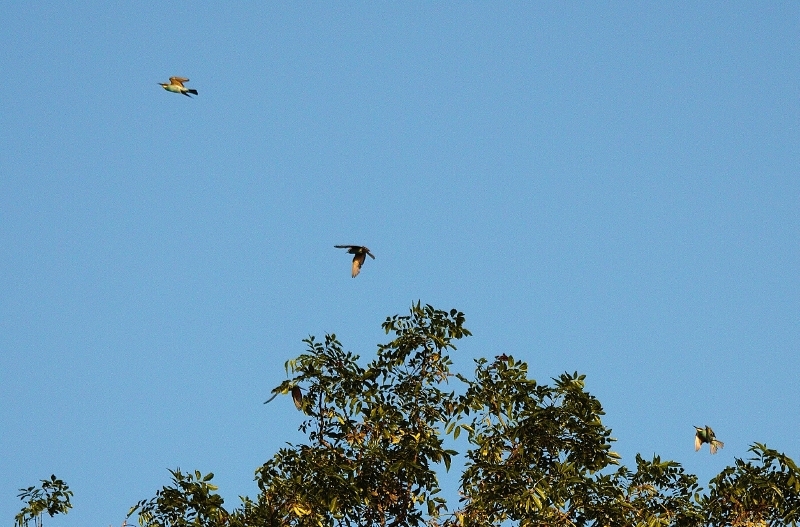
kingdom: Animalia
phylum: Chordata
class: Aves
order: Coraciiformes
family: Meropidae
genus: Merops
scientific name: Merops apiaster
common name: European bee-eater
